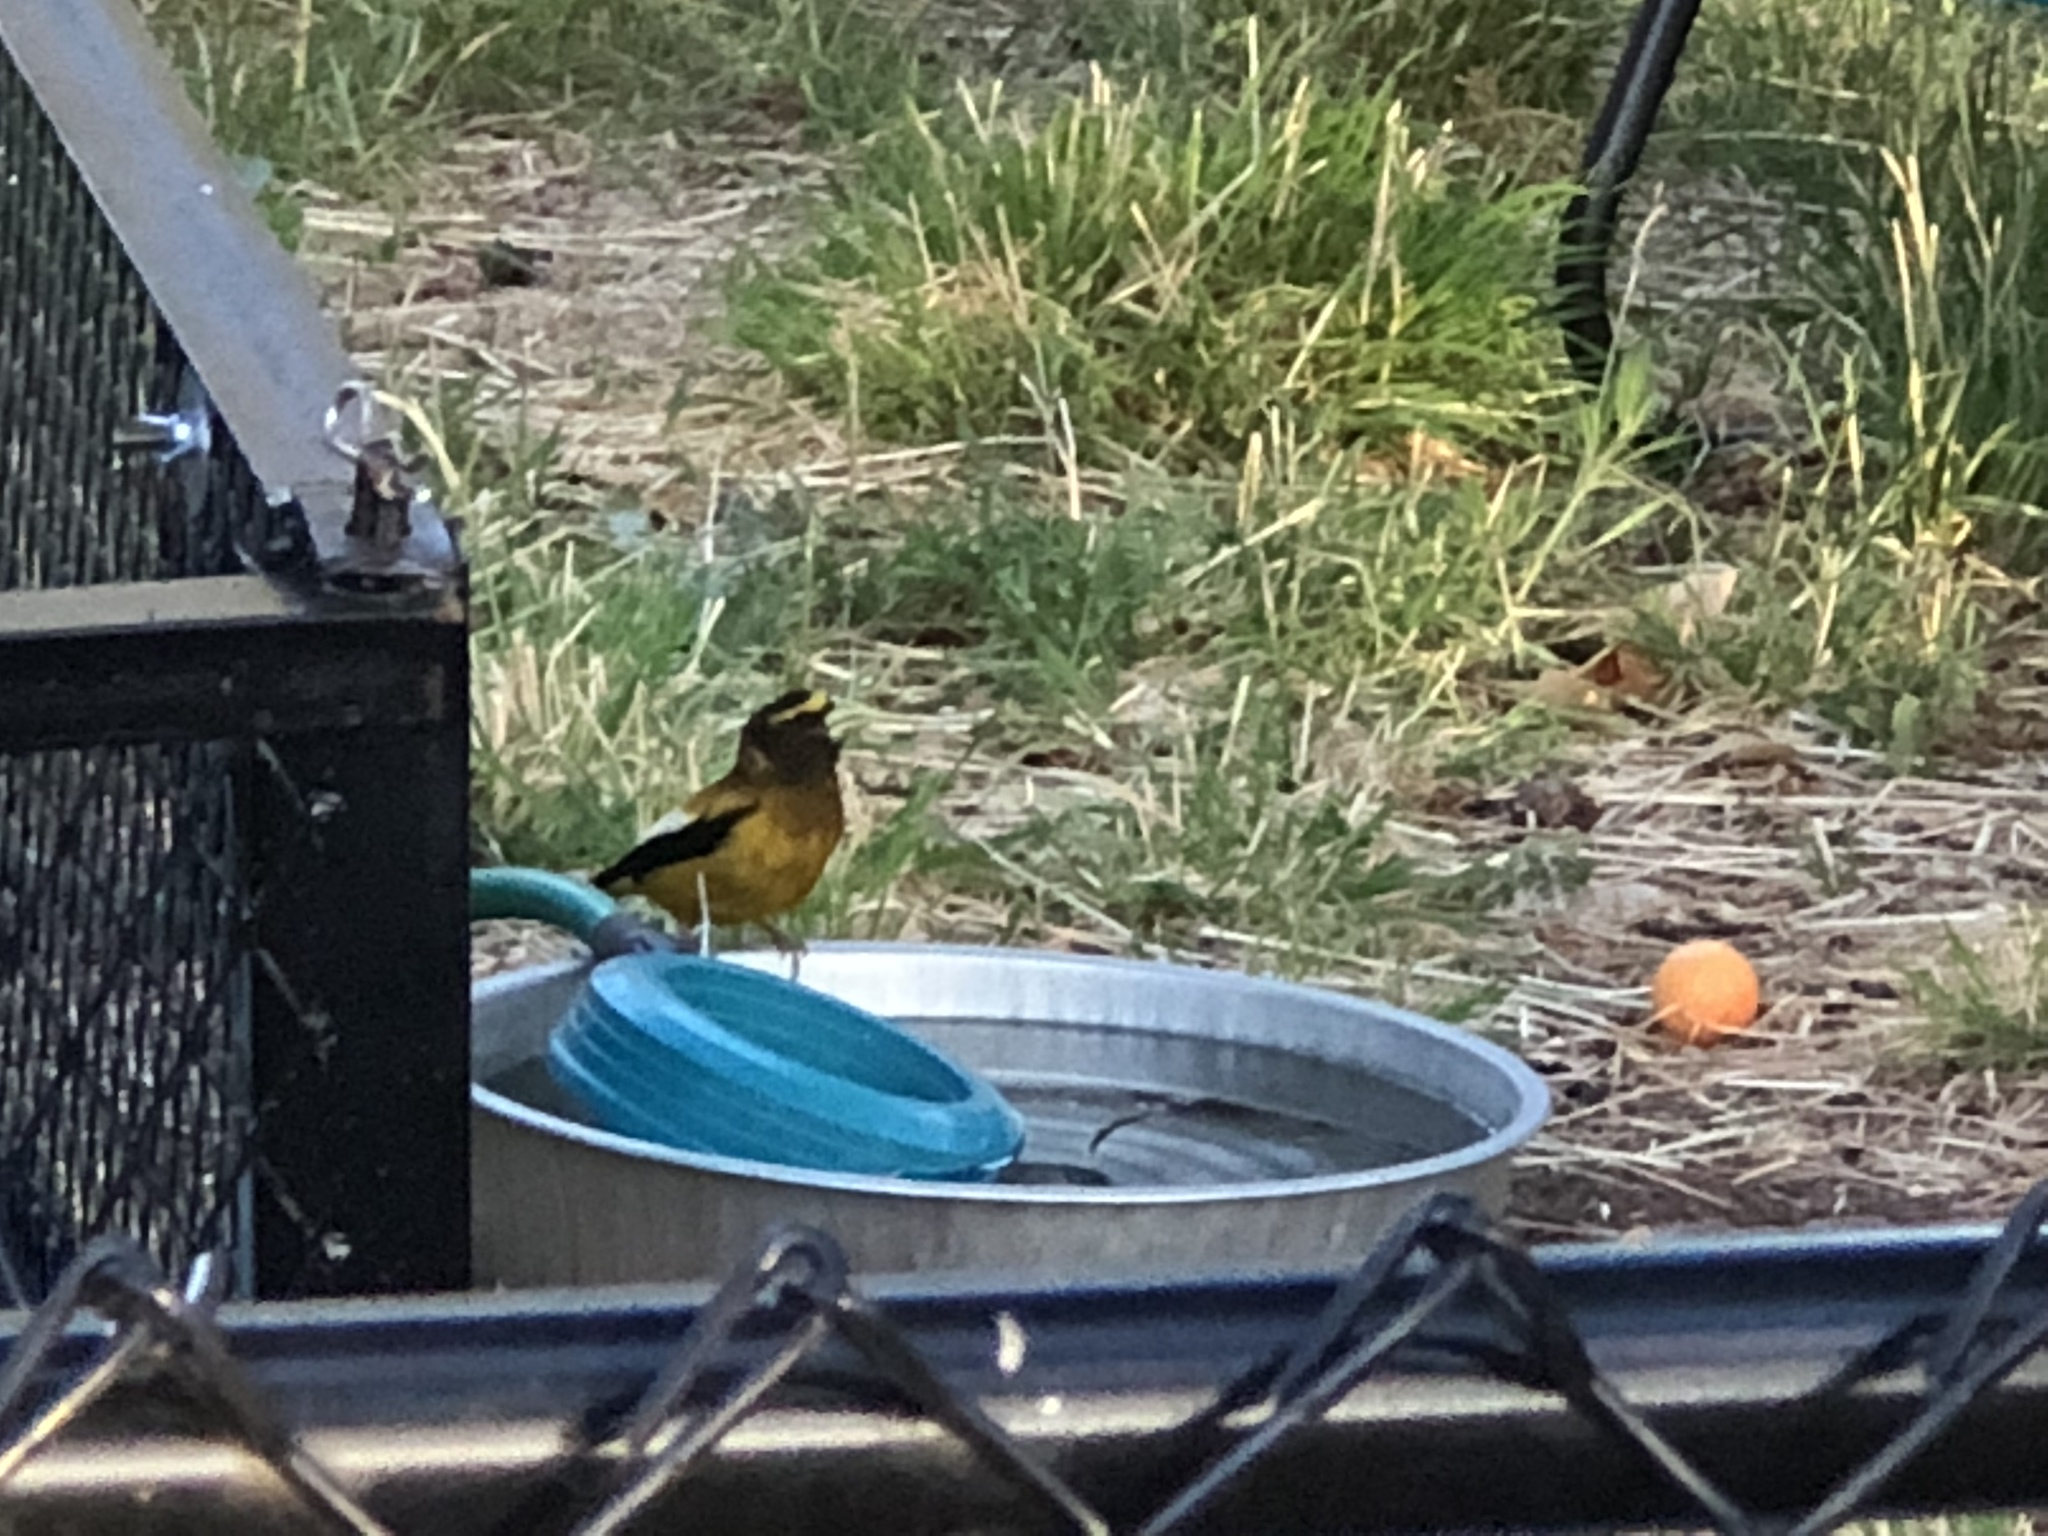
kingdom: Animalia
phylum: Chordata
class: Aves
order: Passeriformes
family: Fringillidae
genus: Hesperiphona
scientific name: Hesperiphona vespertina
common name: Evening grosbeak
